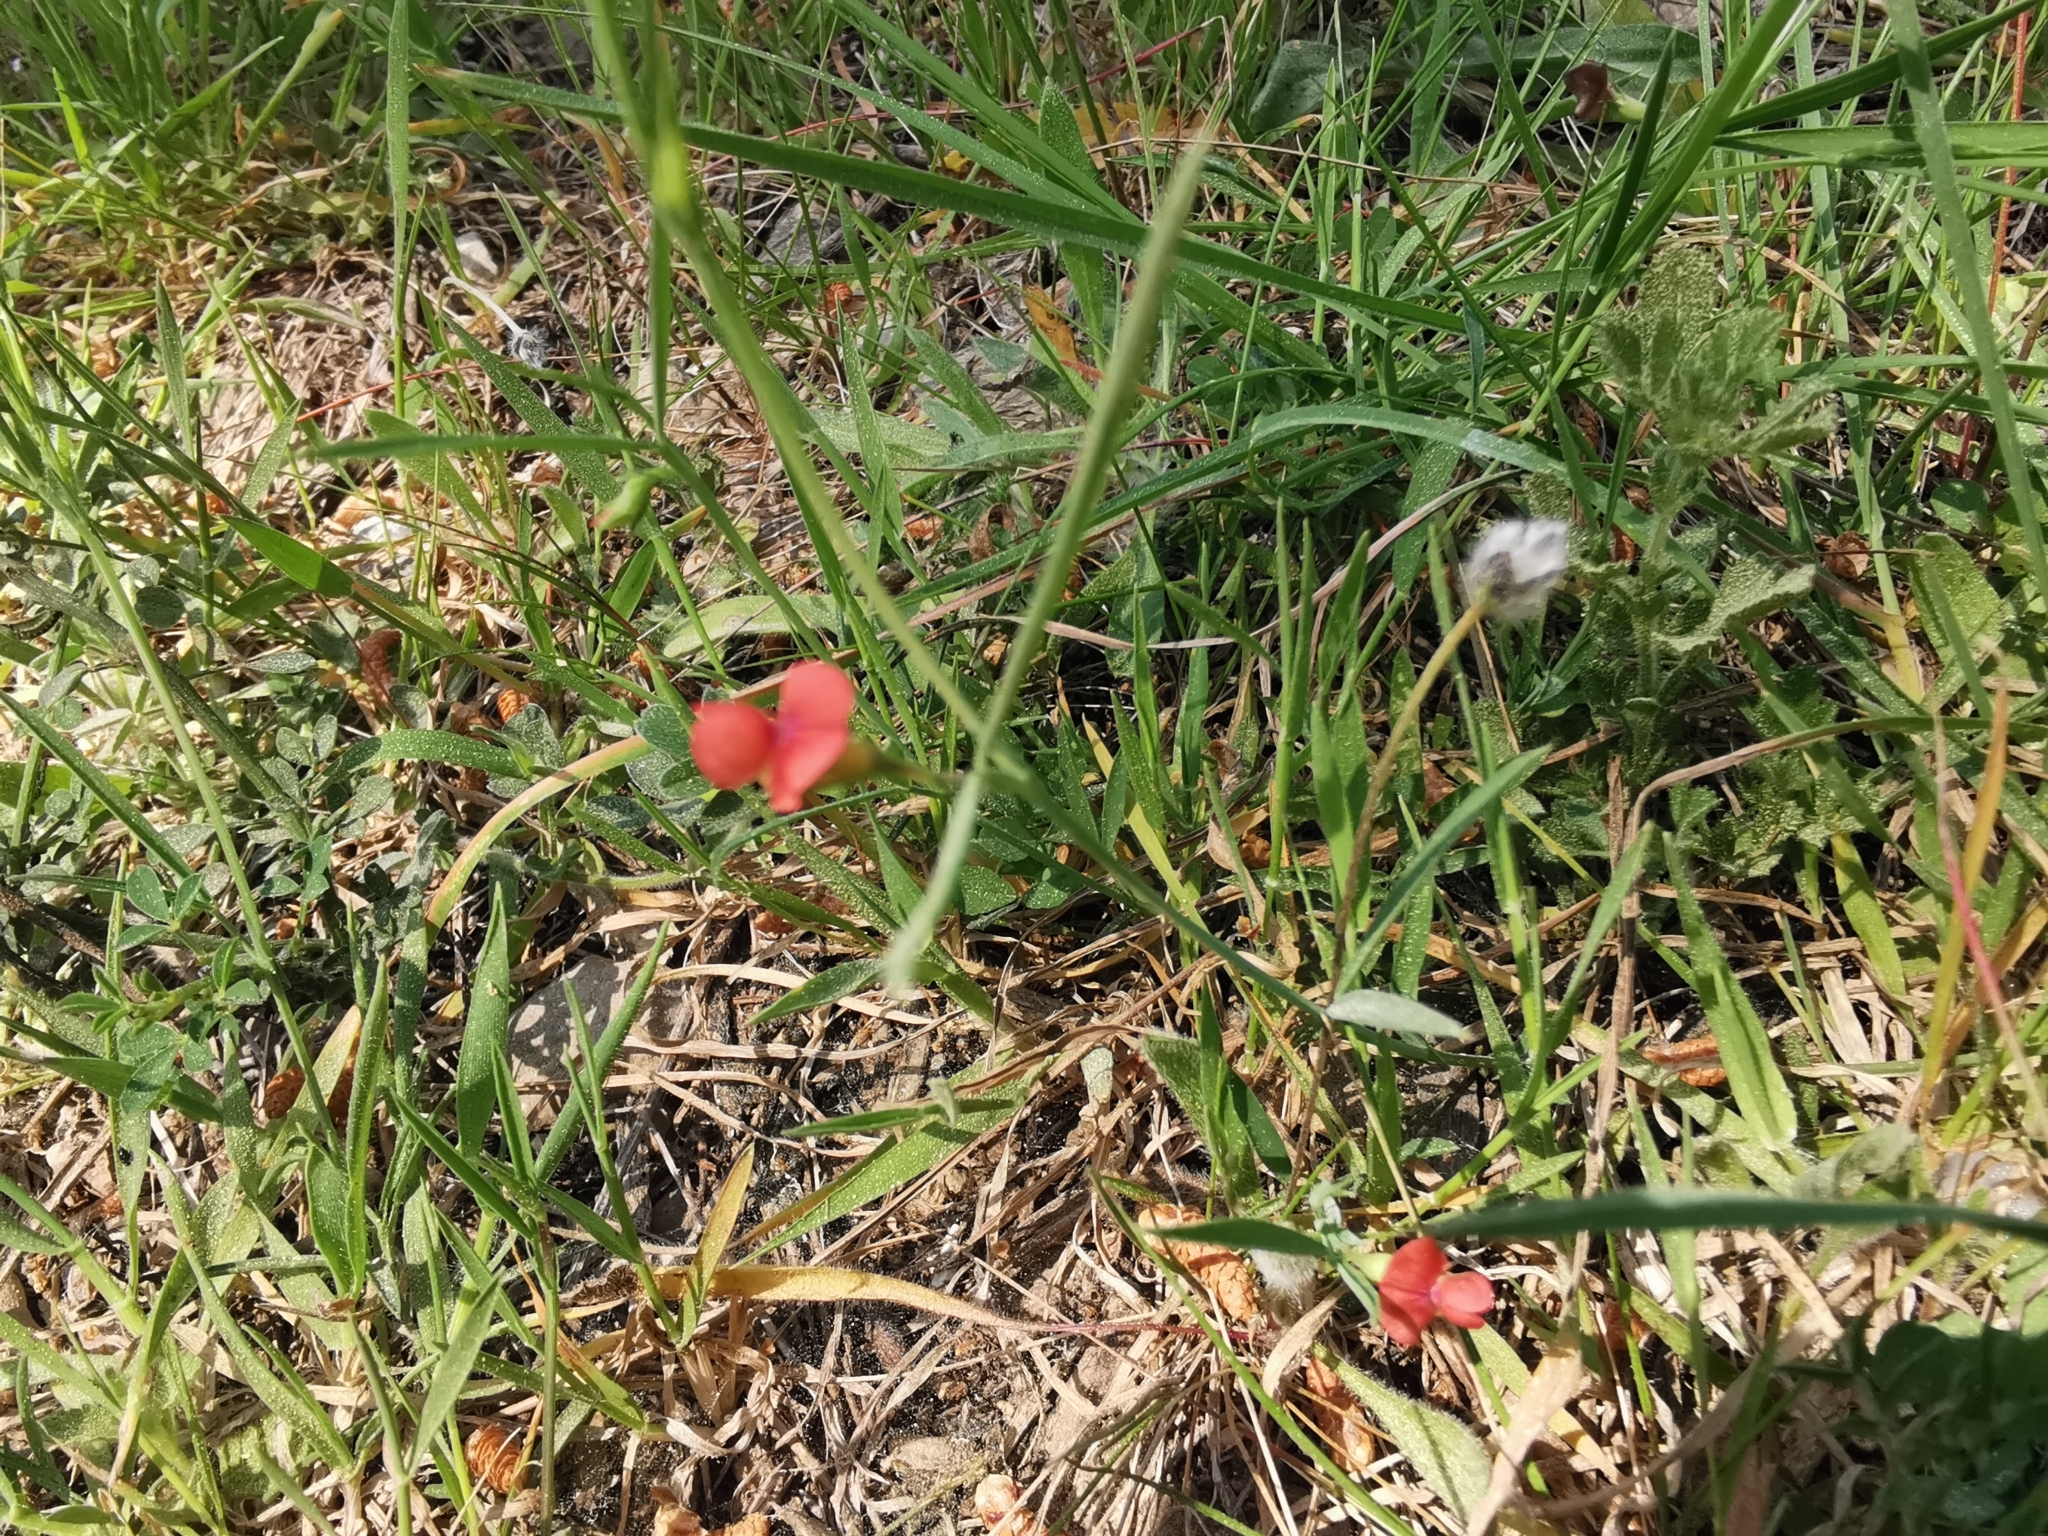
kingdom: Plantae
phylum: Tracheophyta
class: Magnoliopsida
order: Fabales
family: Fabaceae
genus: Lathyrus
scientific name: Lathyrus cicera
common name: Red vetchling
